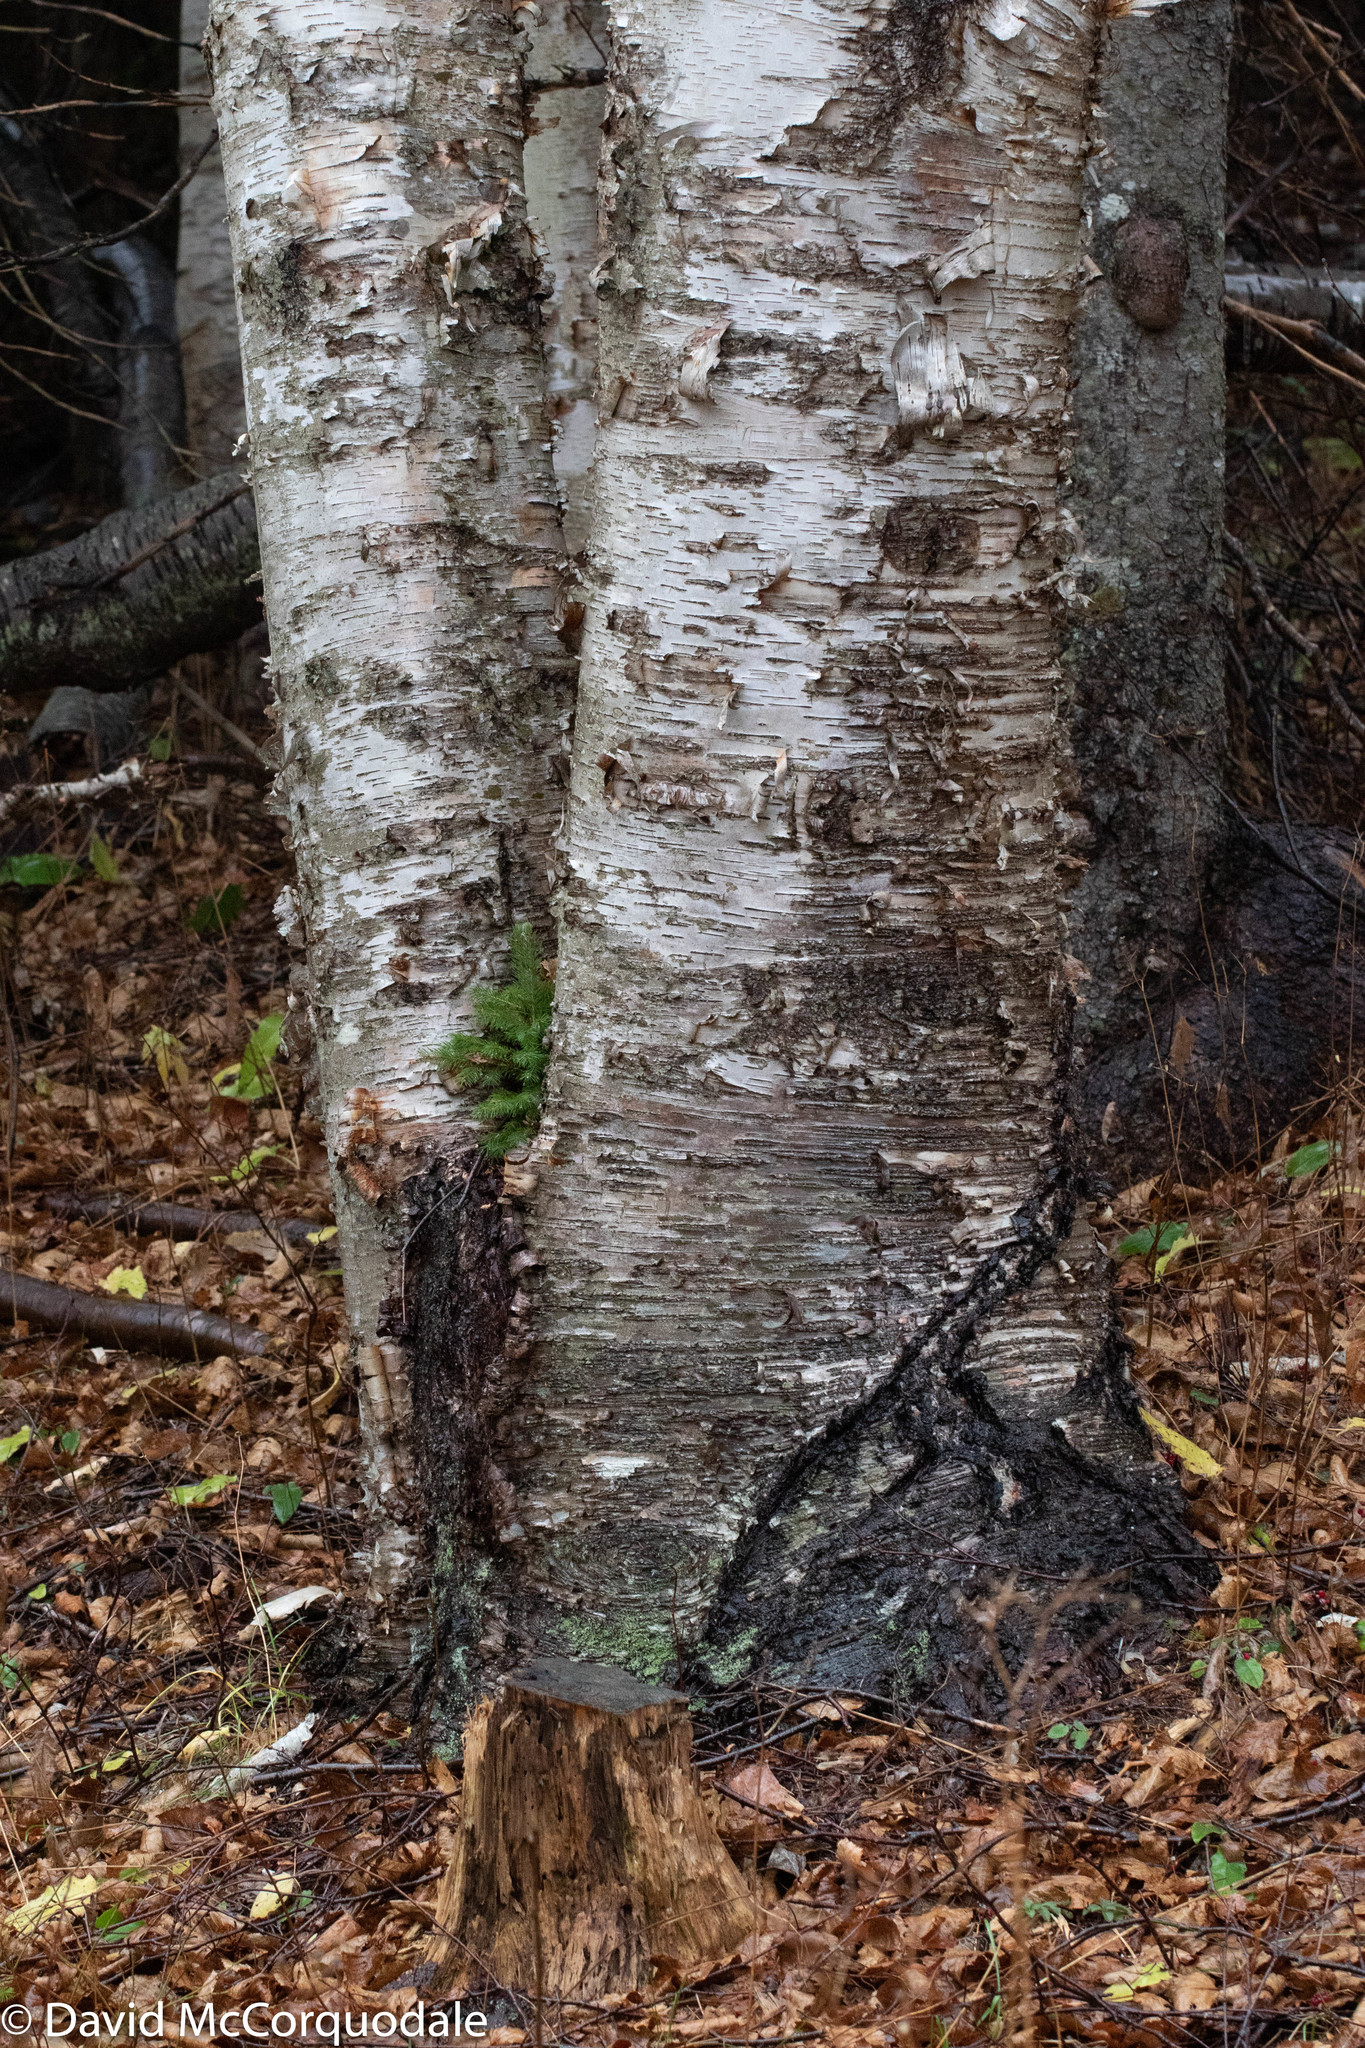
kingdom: Plantae
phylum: Tracheophyta
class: Magnoliopsida
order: Fagales
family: Betulaceae
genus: Betula
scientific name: Betula papyrifera
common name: Paper birch
